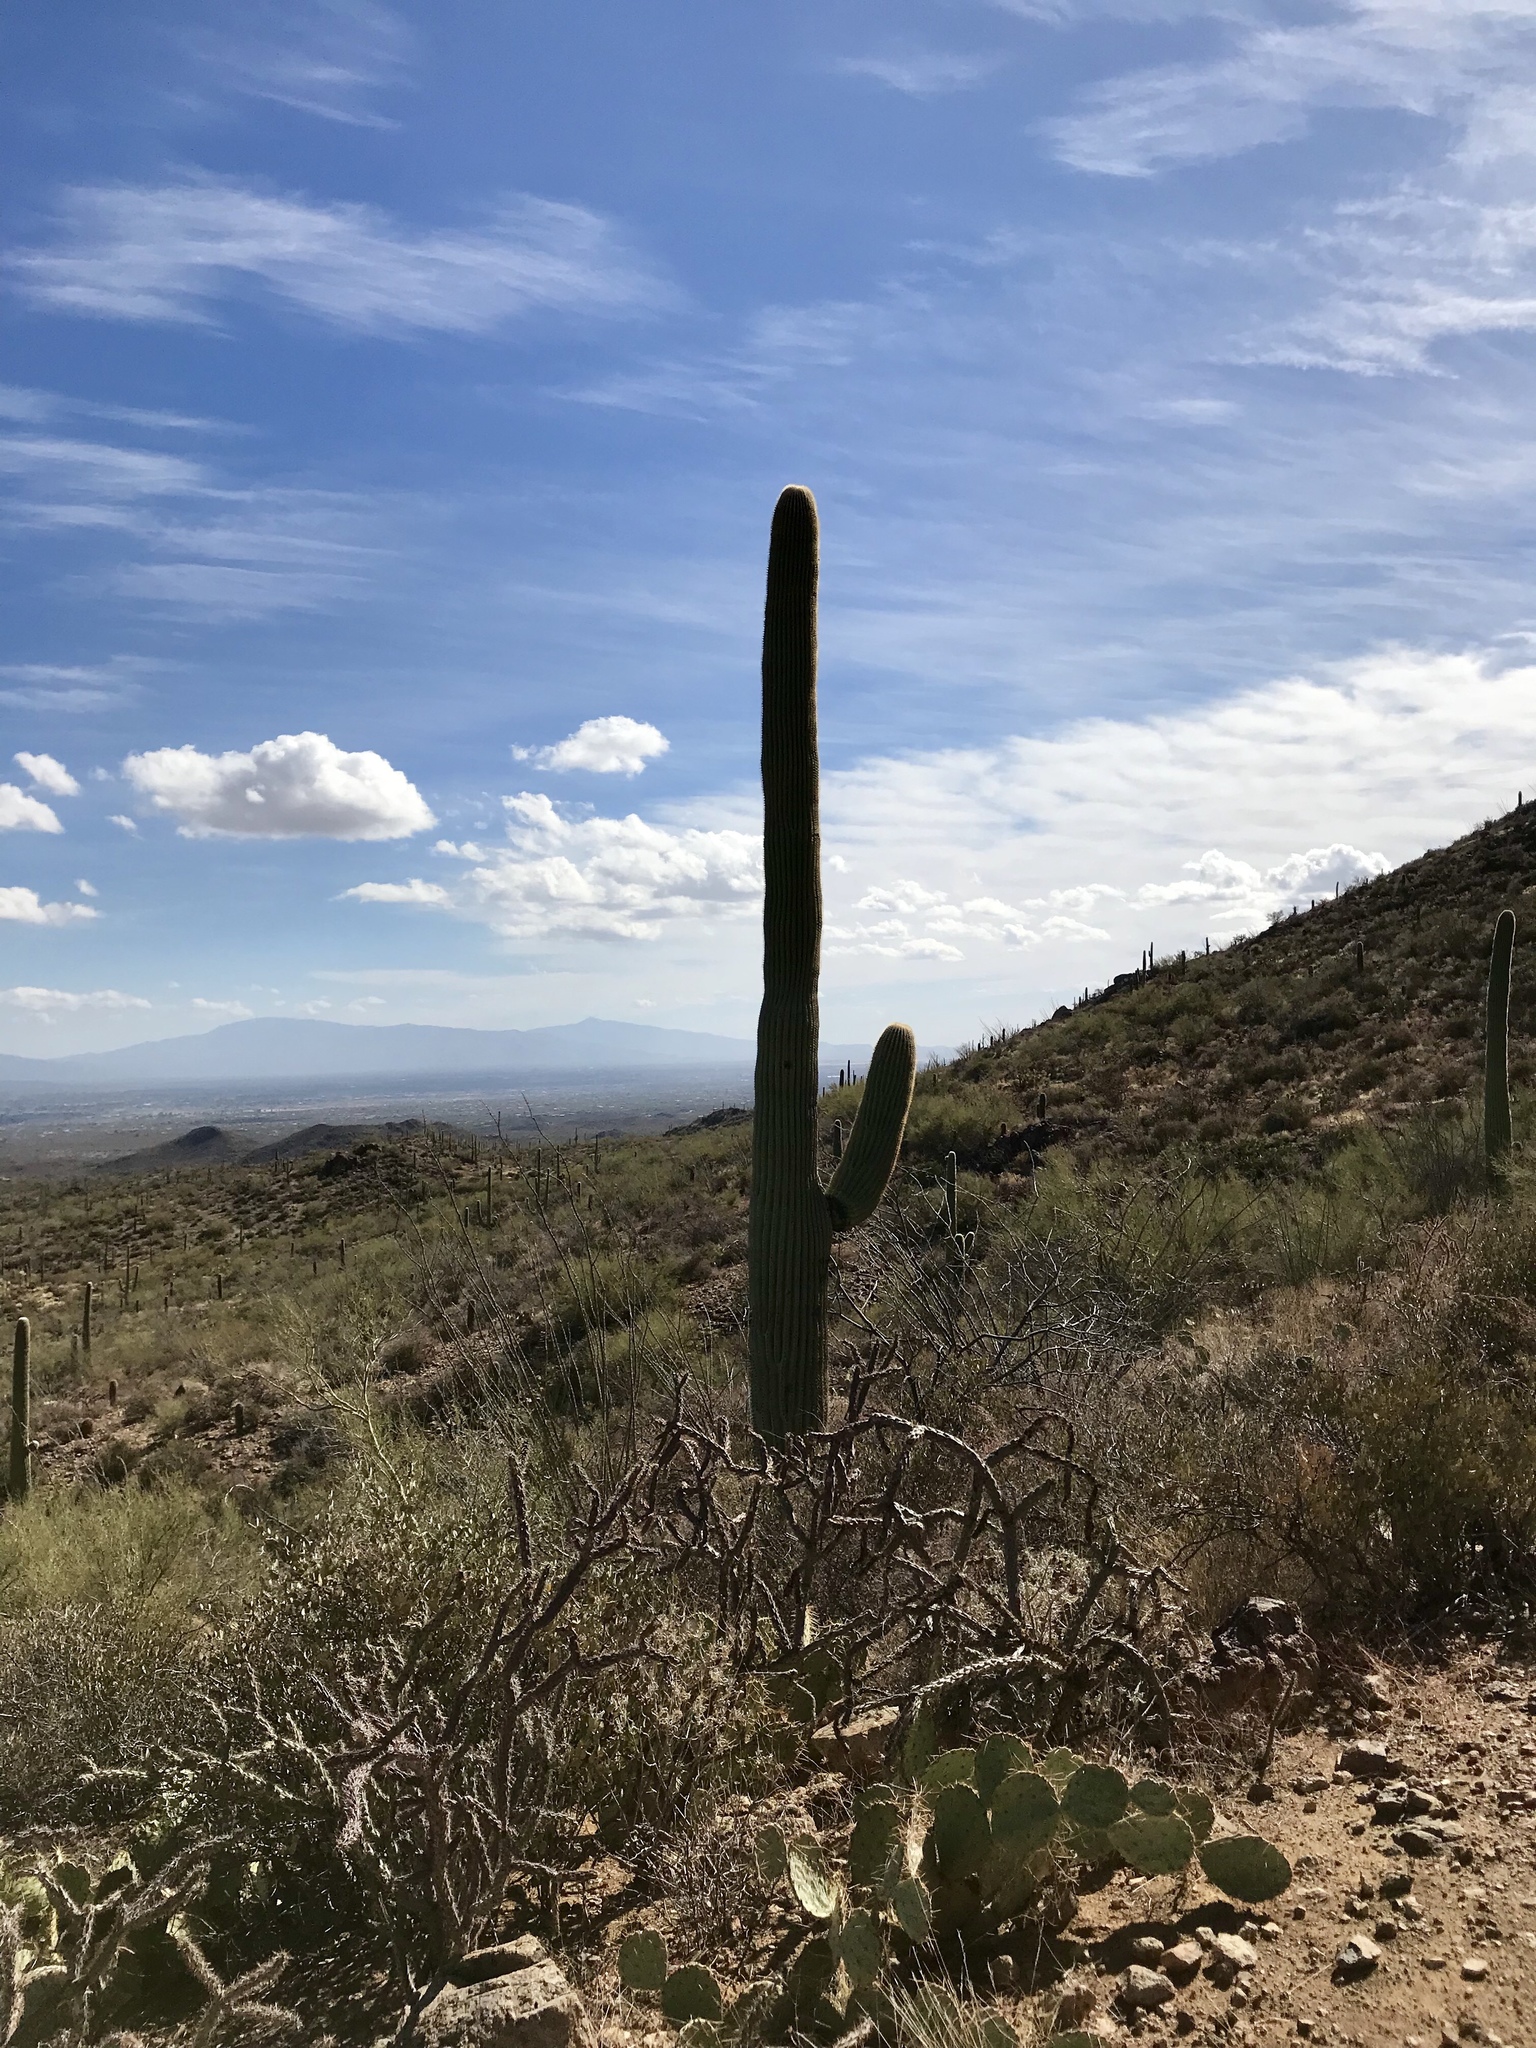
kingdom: Plantae
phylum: Tracheophyta
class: Magnoliopsida
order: Caryophyllales
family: Cactaceae
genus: Carnegiea
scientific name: Carnegiea gigantea
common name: Saguaro
